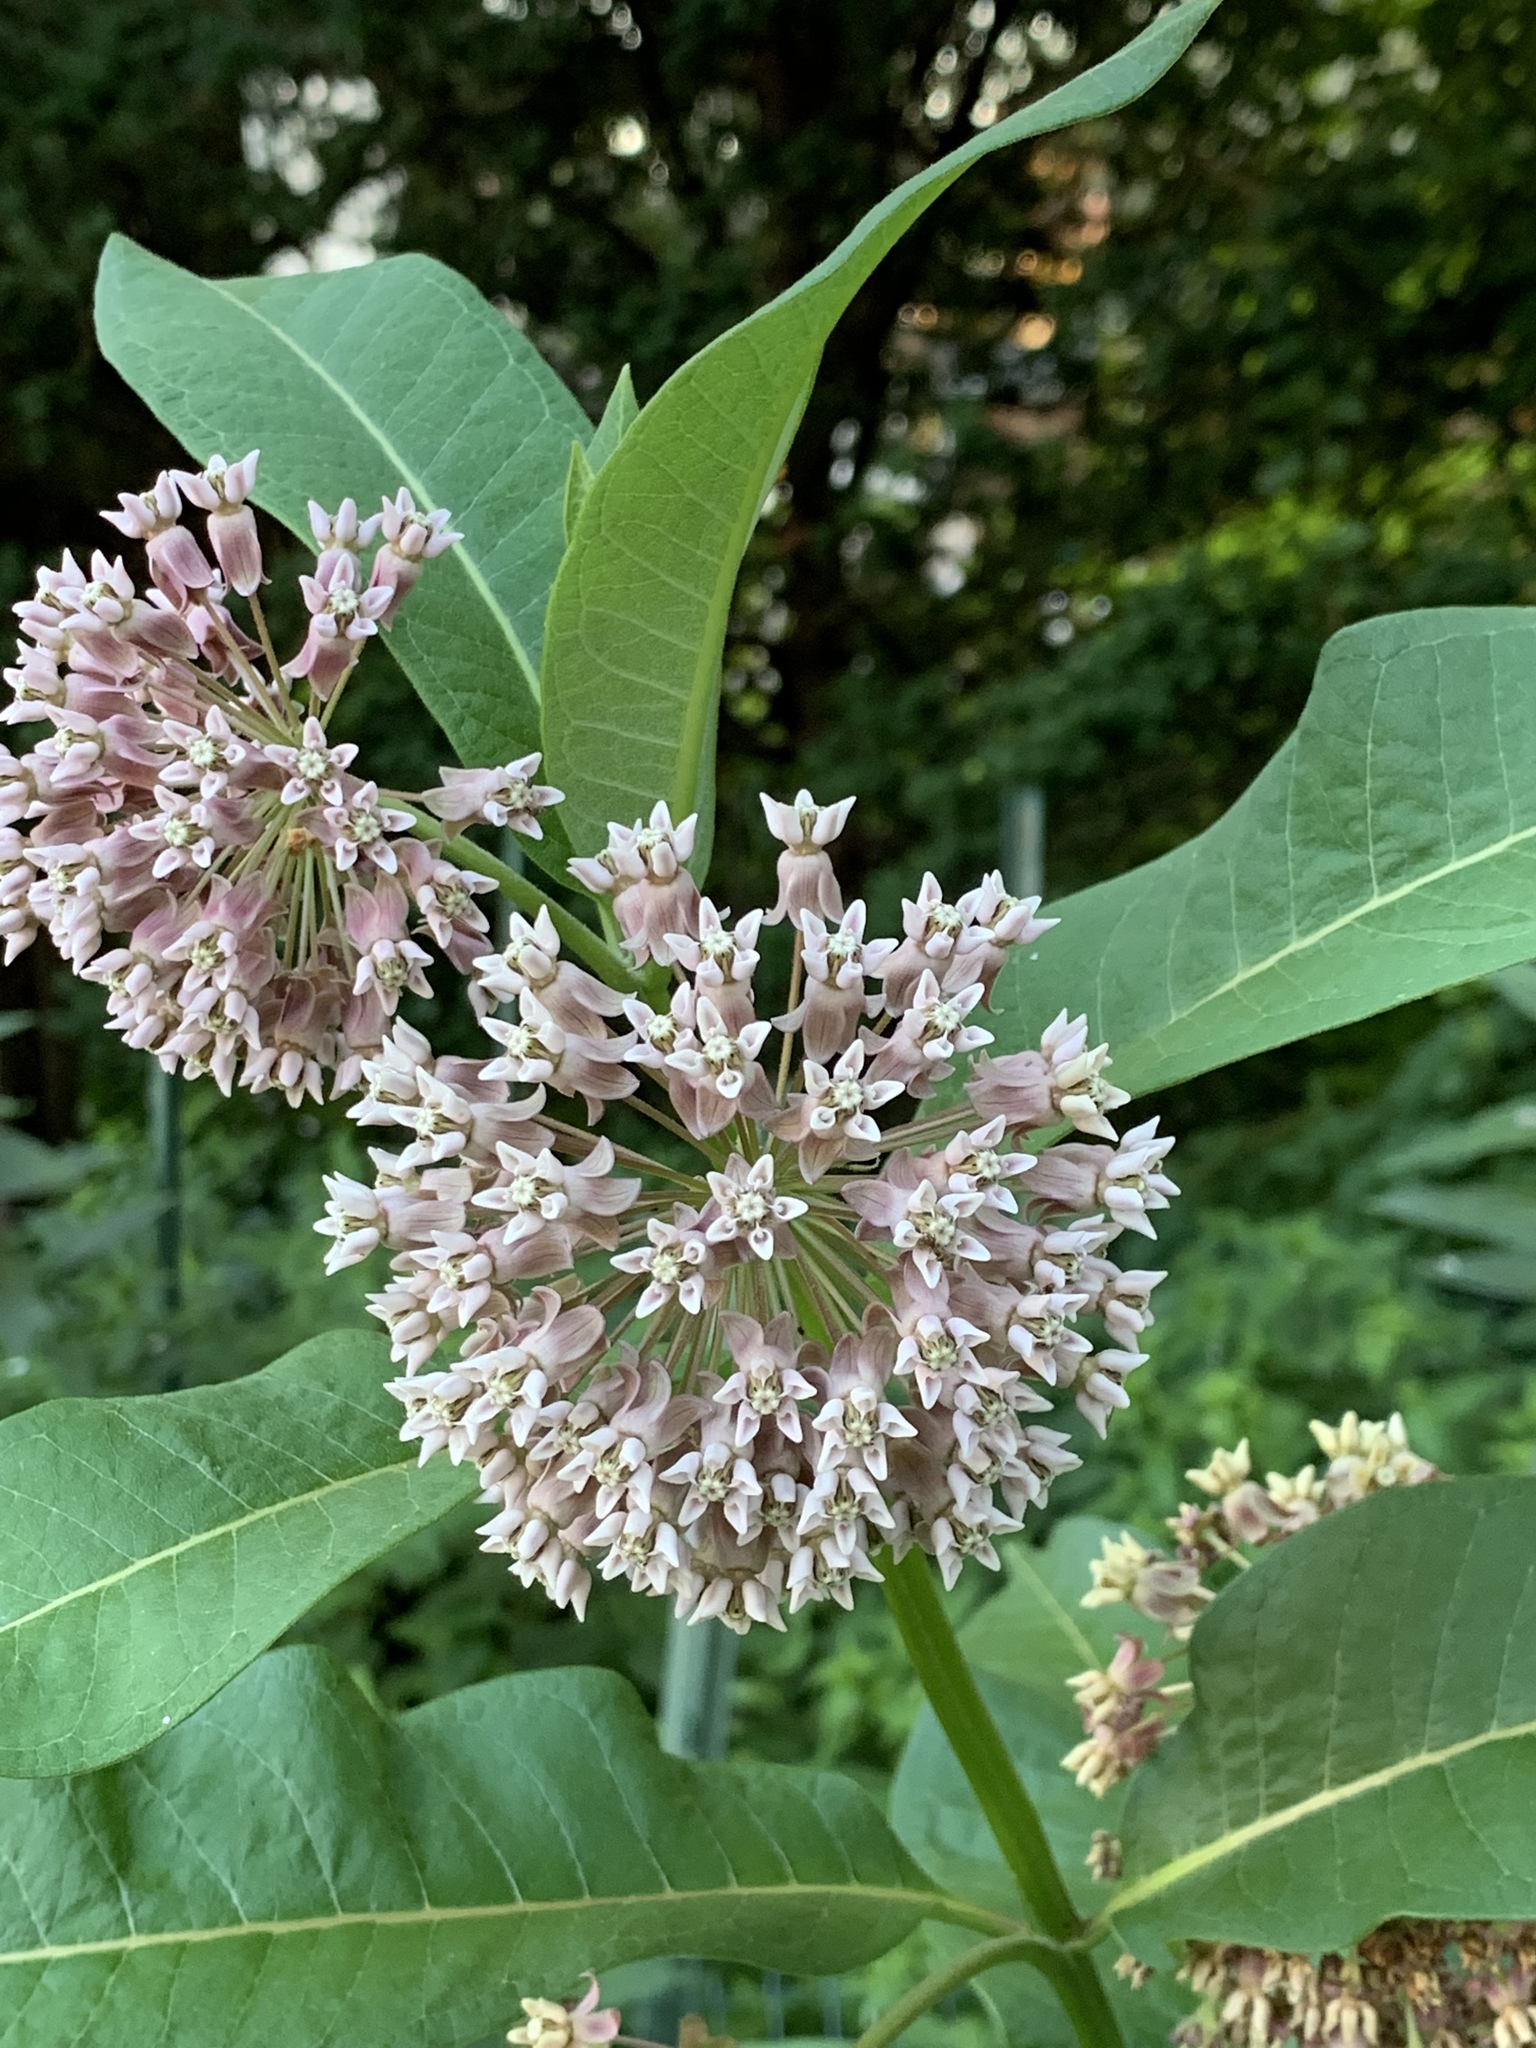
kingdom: Plantae
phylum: Tracheophyta
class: Magnoliopsida
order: Gentianales
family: Apocynaceae
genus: Asclepias
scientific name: Asclepias syriaca
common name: Common milkweed
